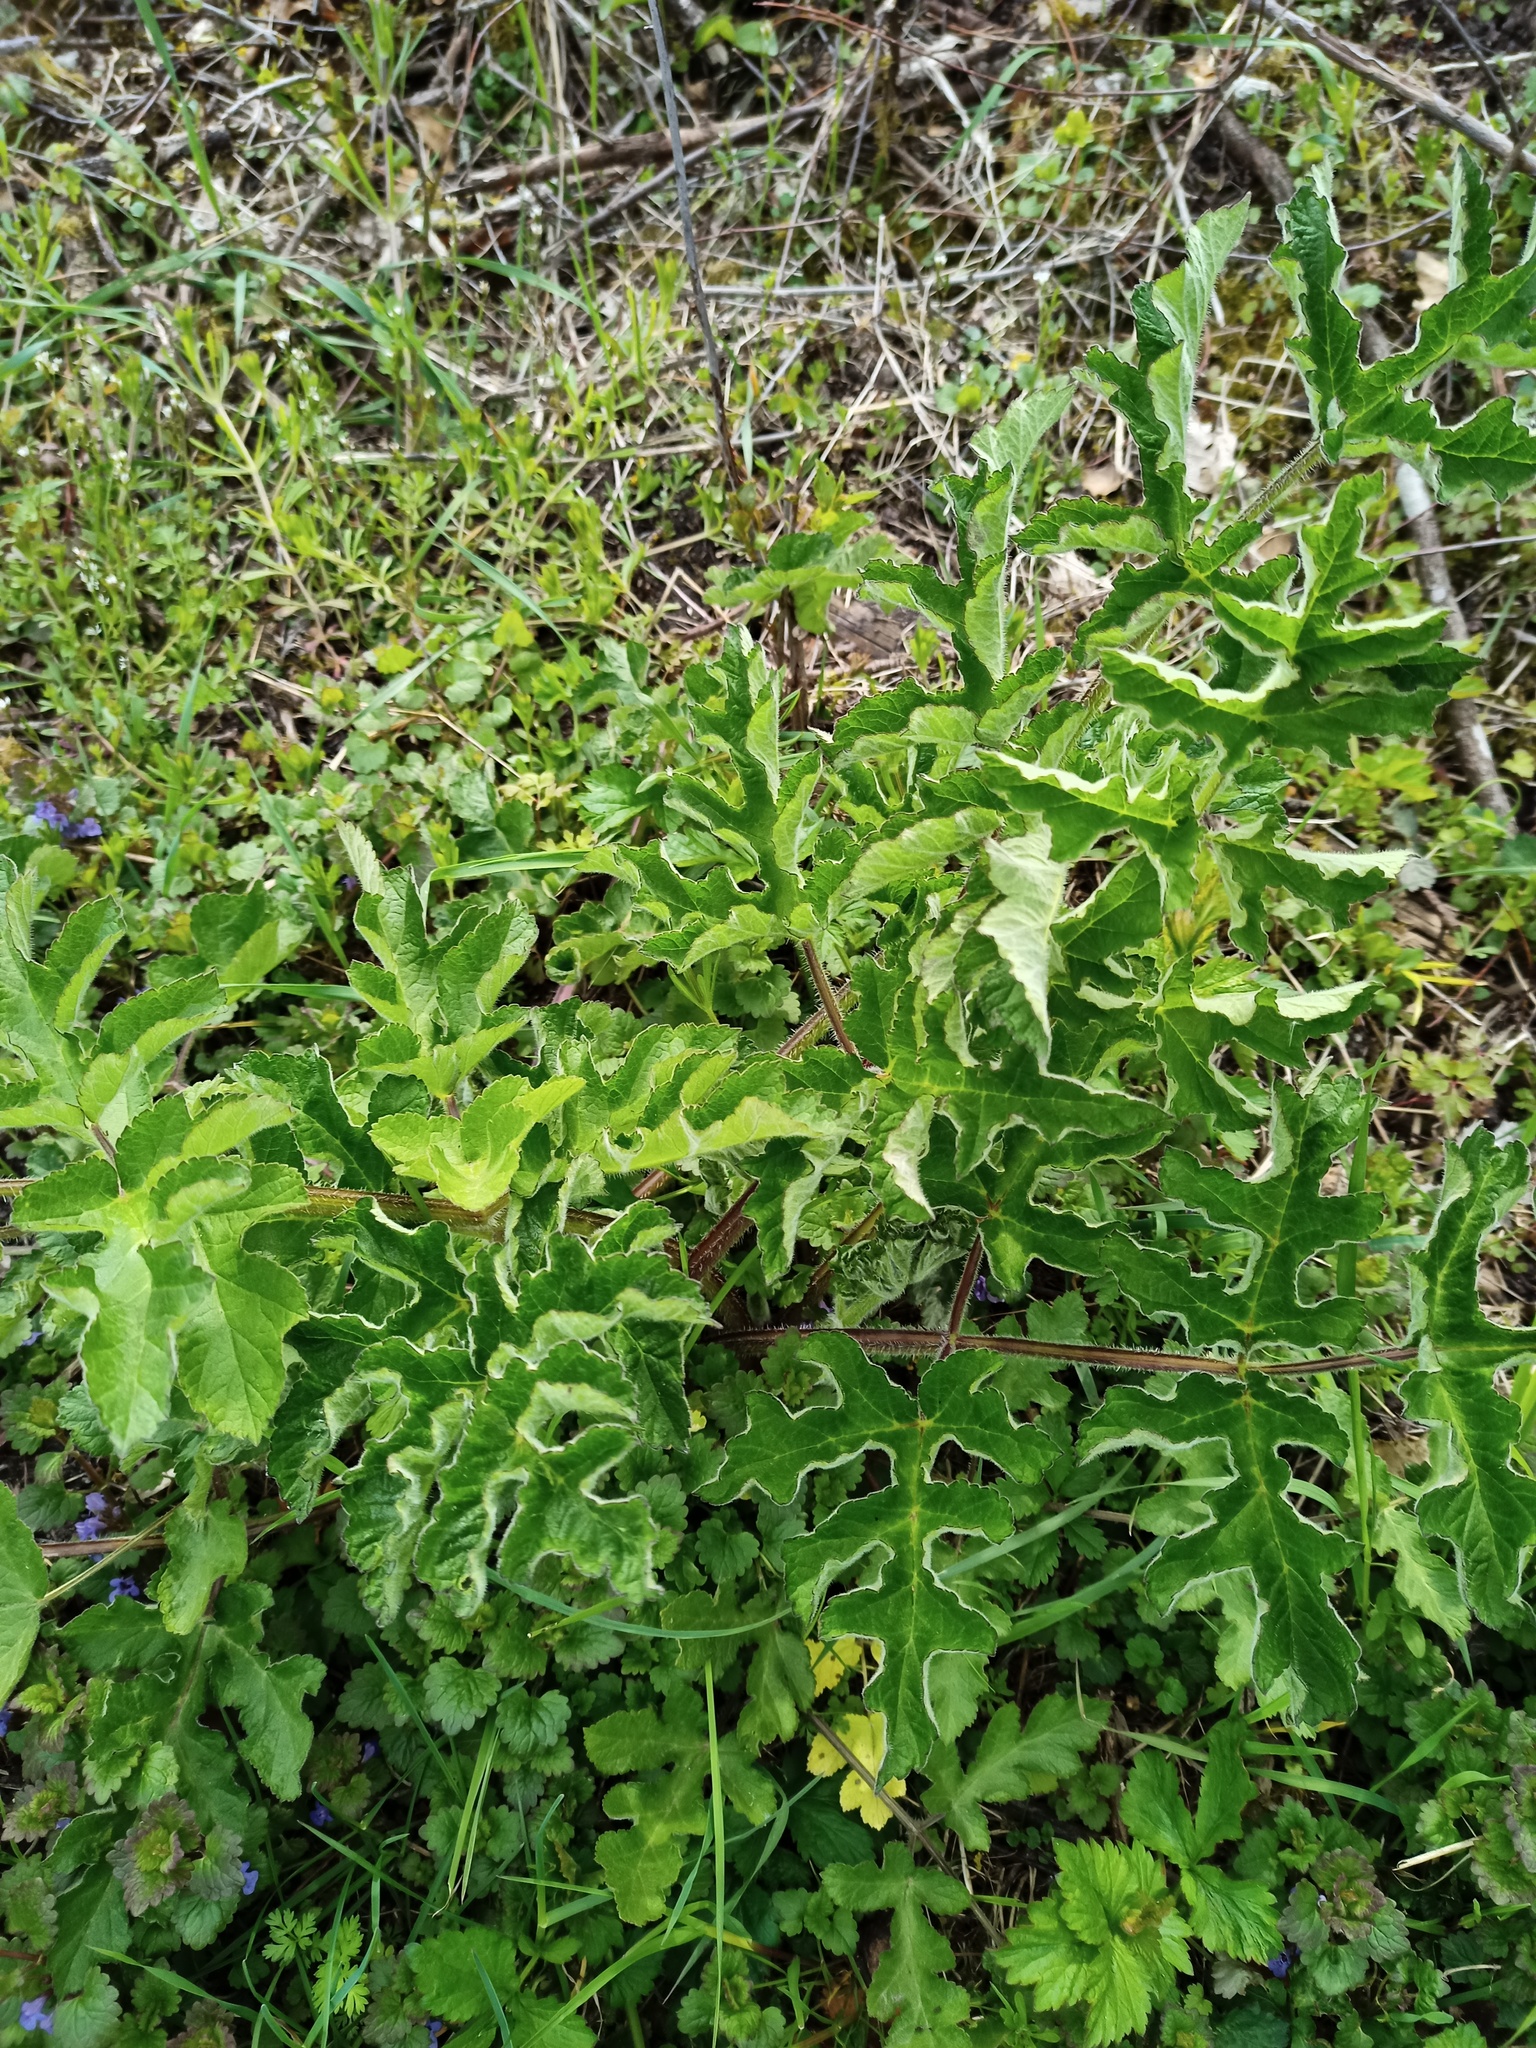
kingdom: Plantae
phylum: Tracheophyta
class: Magnoliopsida
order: Apiales
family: Apiaceae
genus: Heracleum
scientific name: Heracleum sphondylium
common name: Hogweed
